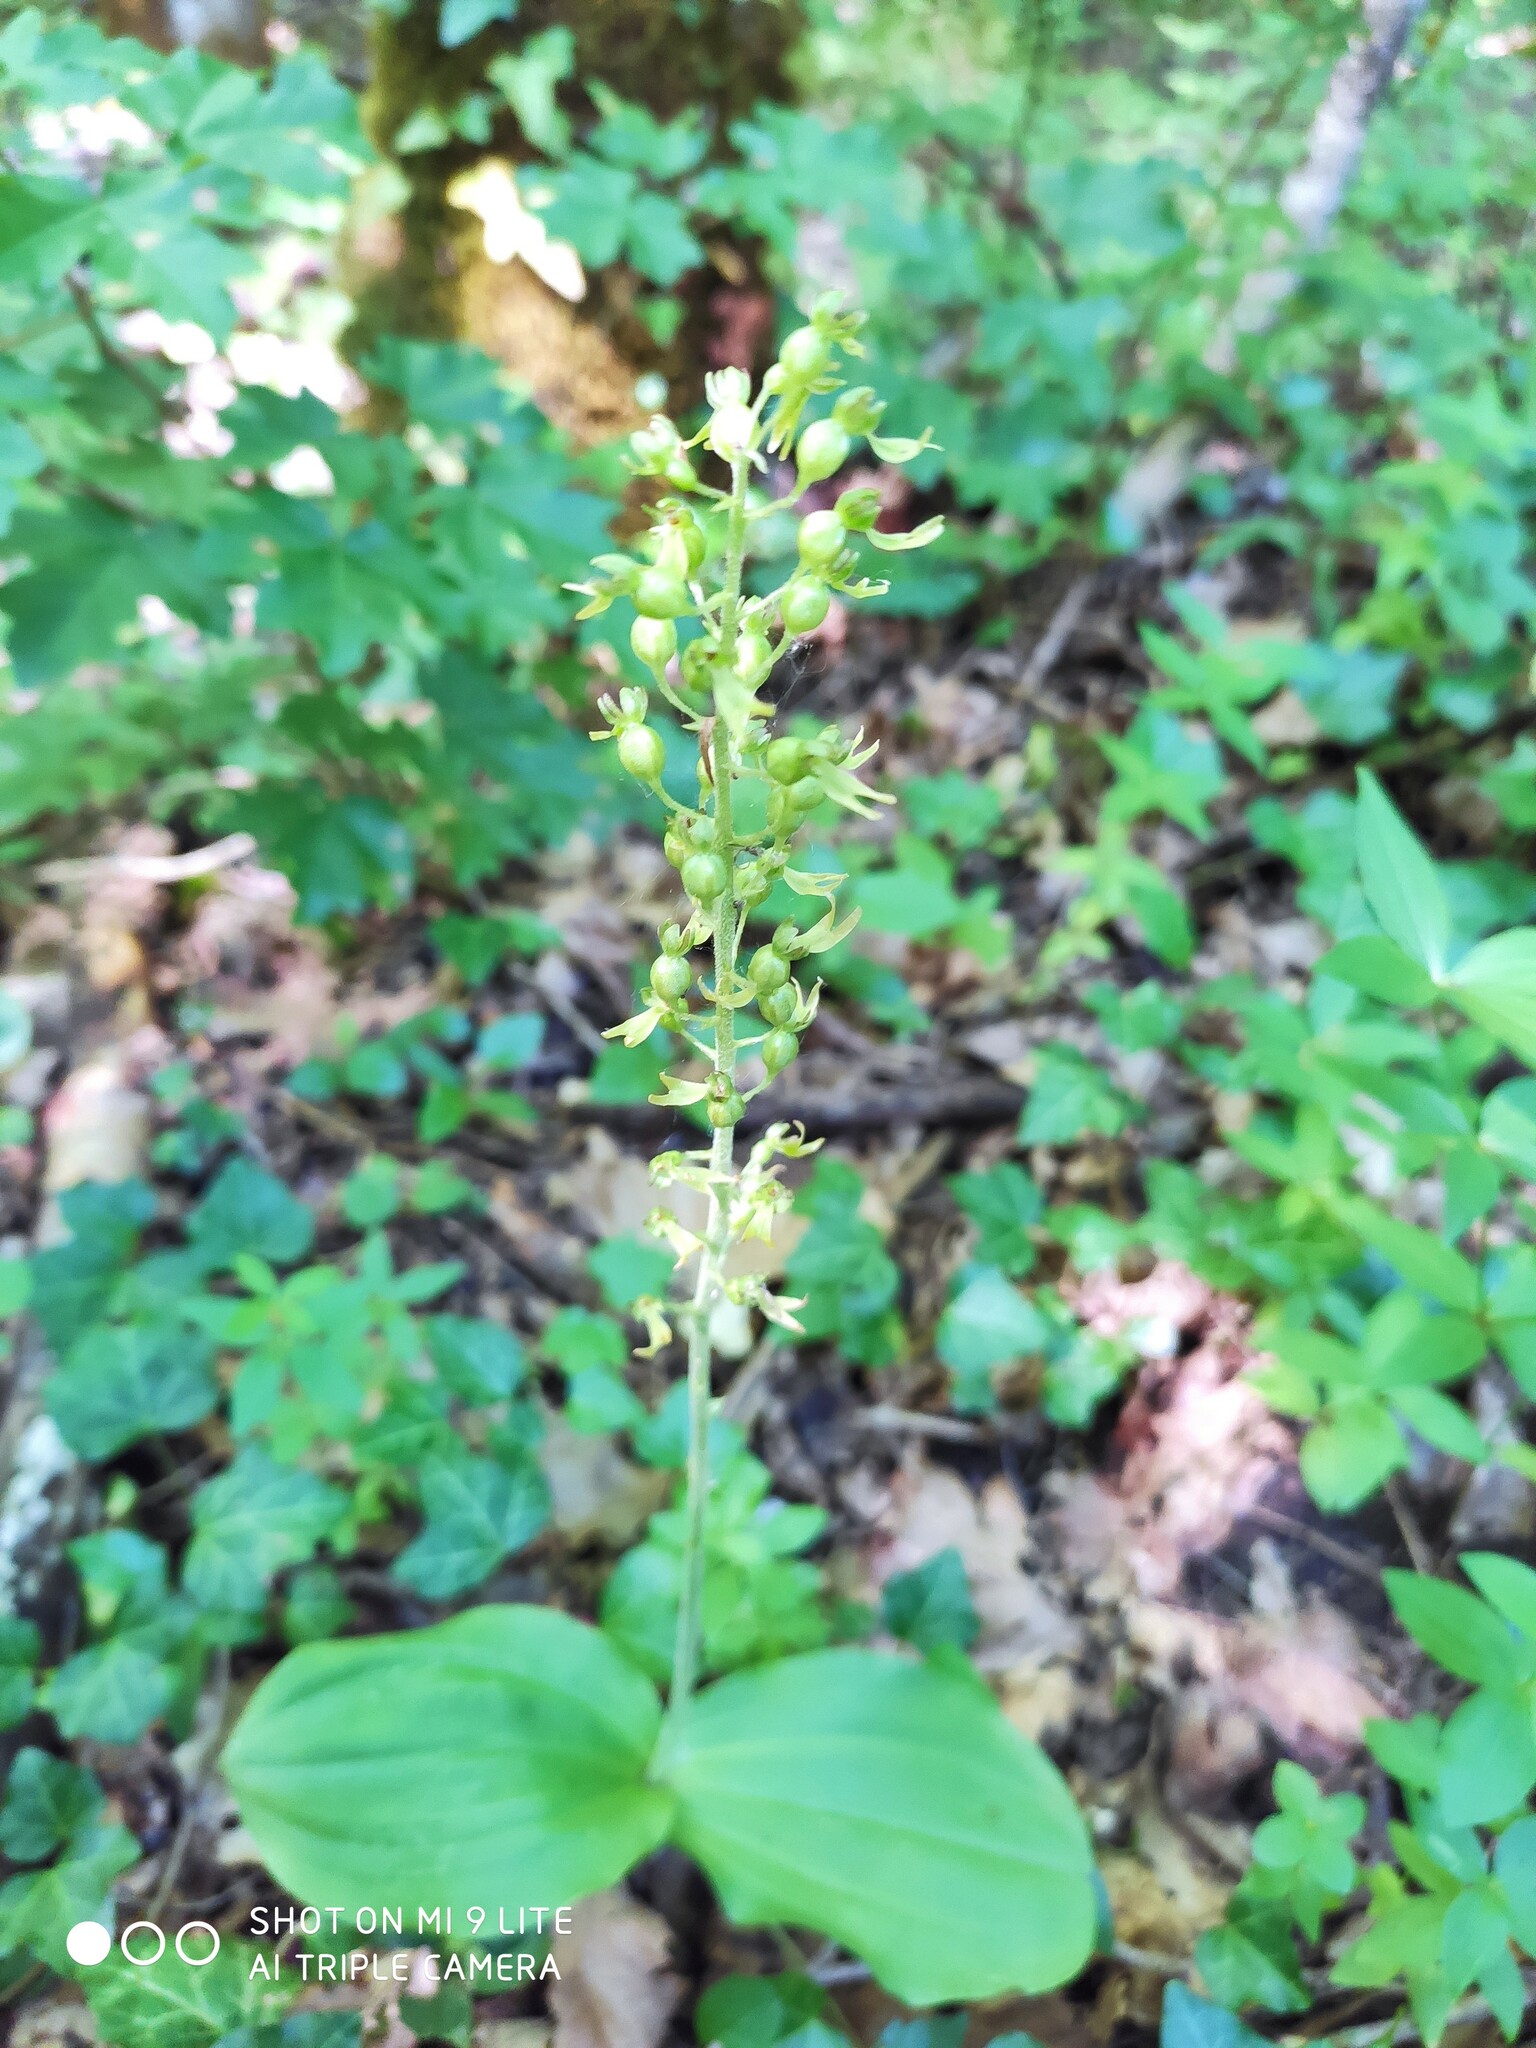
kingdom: Plantae
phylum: Tracheophyta
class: Liliopsida
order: Asparagales
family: Orchidaceae
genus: Neottia
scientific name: Neottia ovata
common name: Common twayblade
